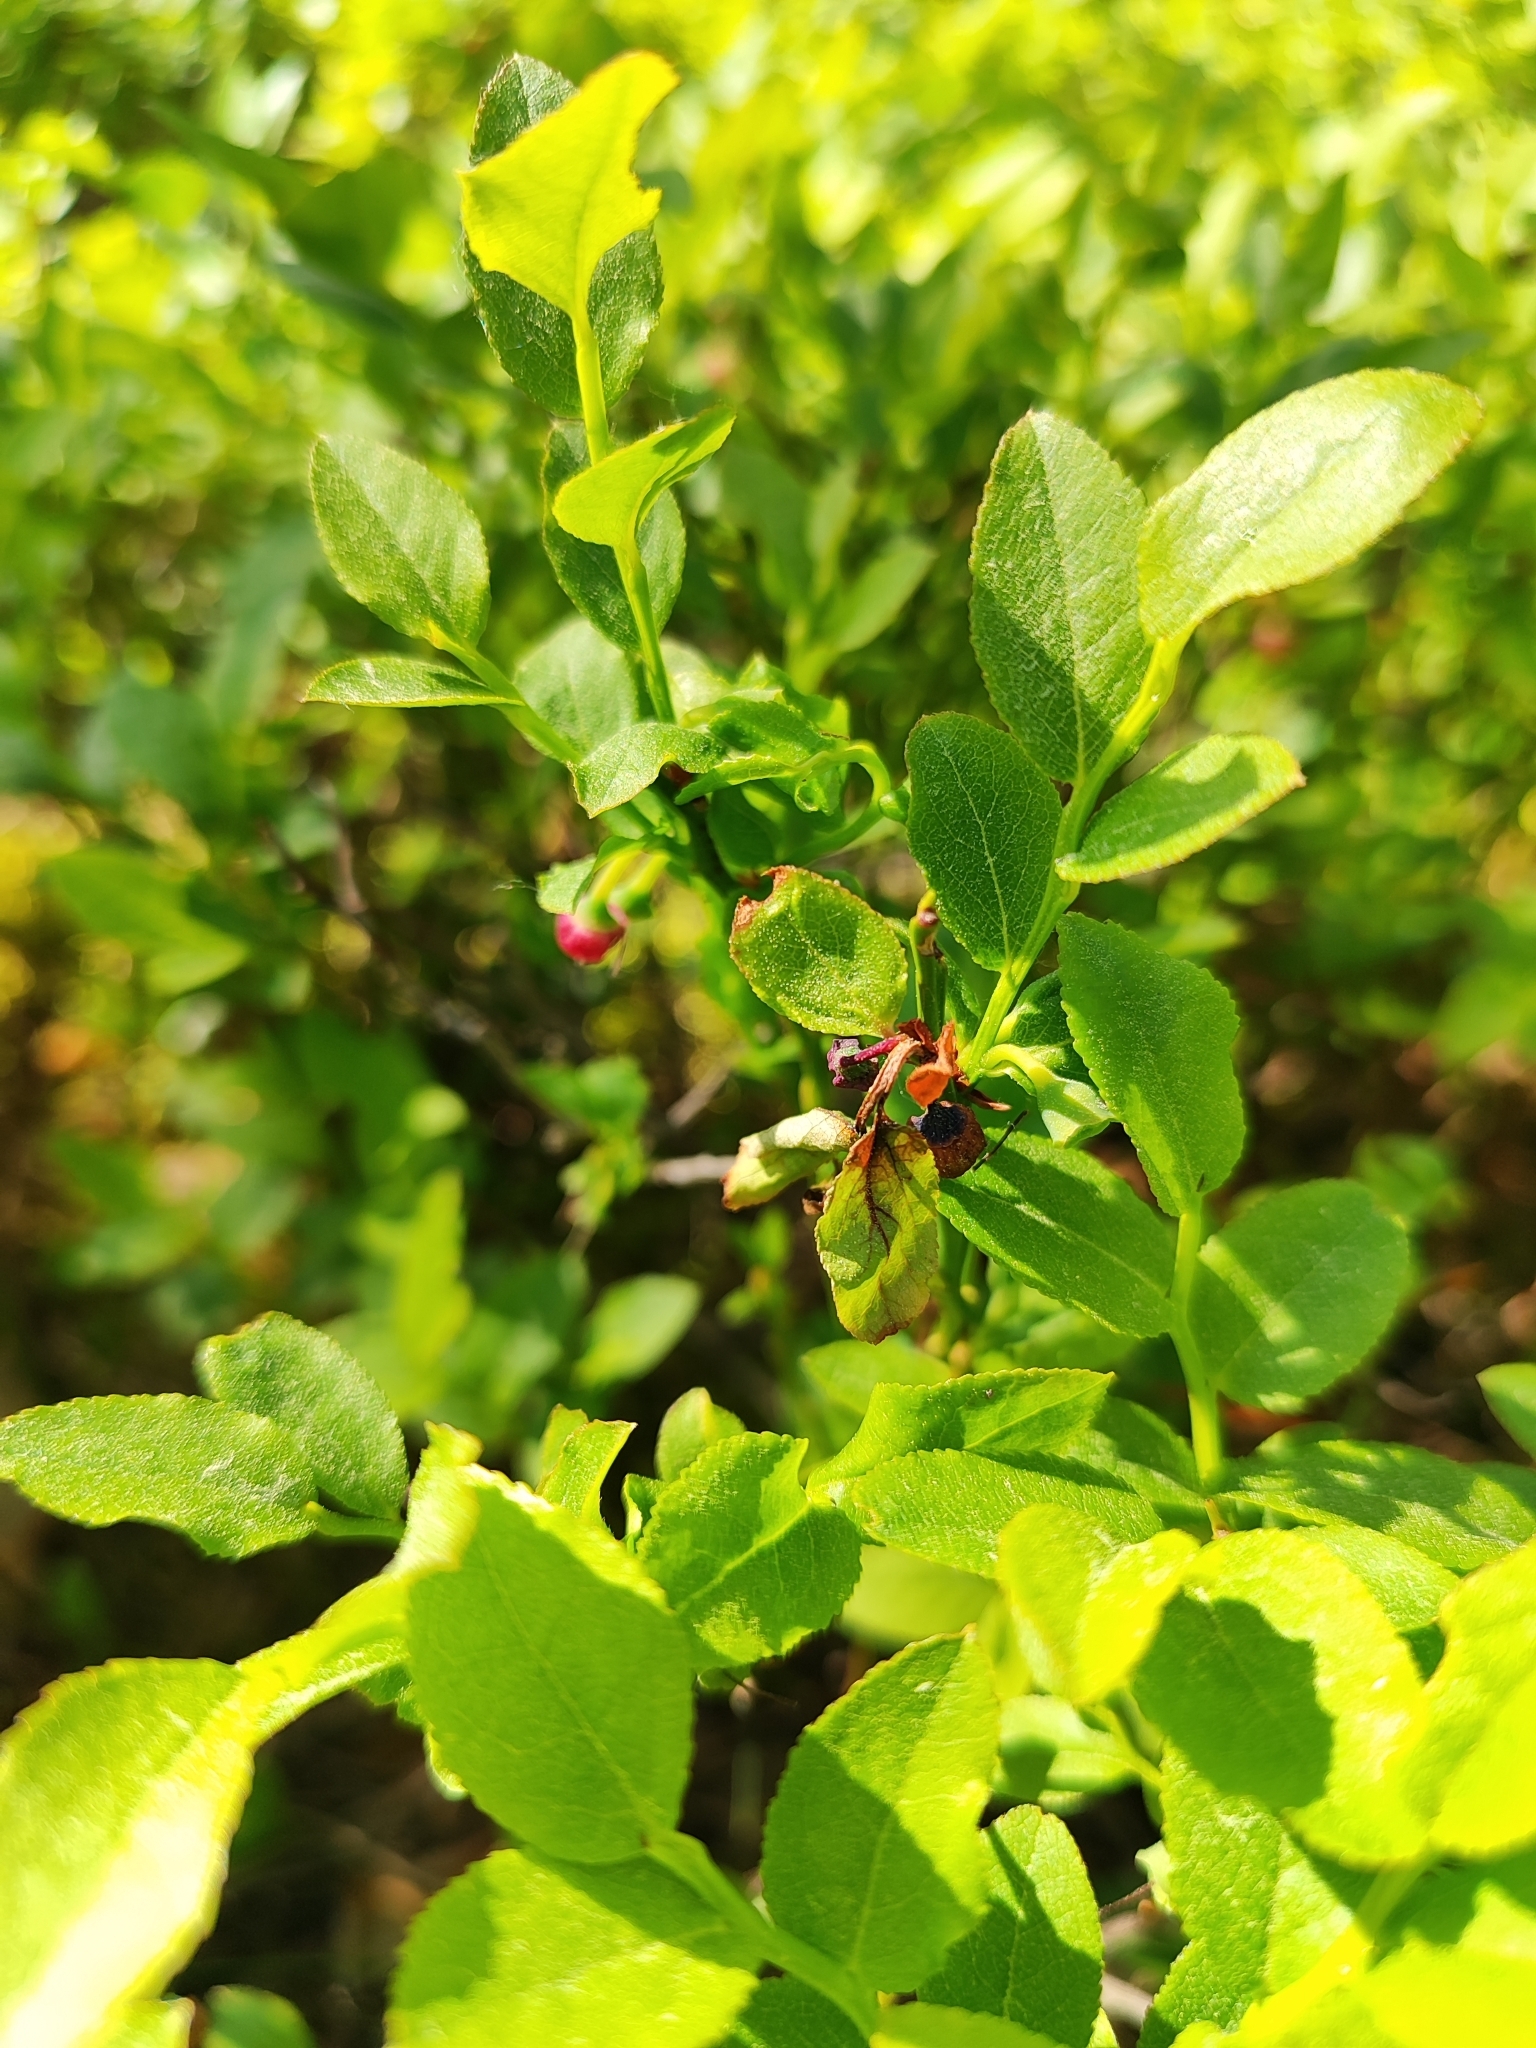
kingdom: Plantae
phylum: Tracheophyta
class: Magnoliopsida
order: Ericales
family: Ericaceae
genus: Vaccinium
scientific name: Vaccinium myrtillus
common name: Bilberry
